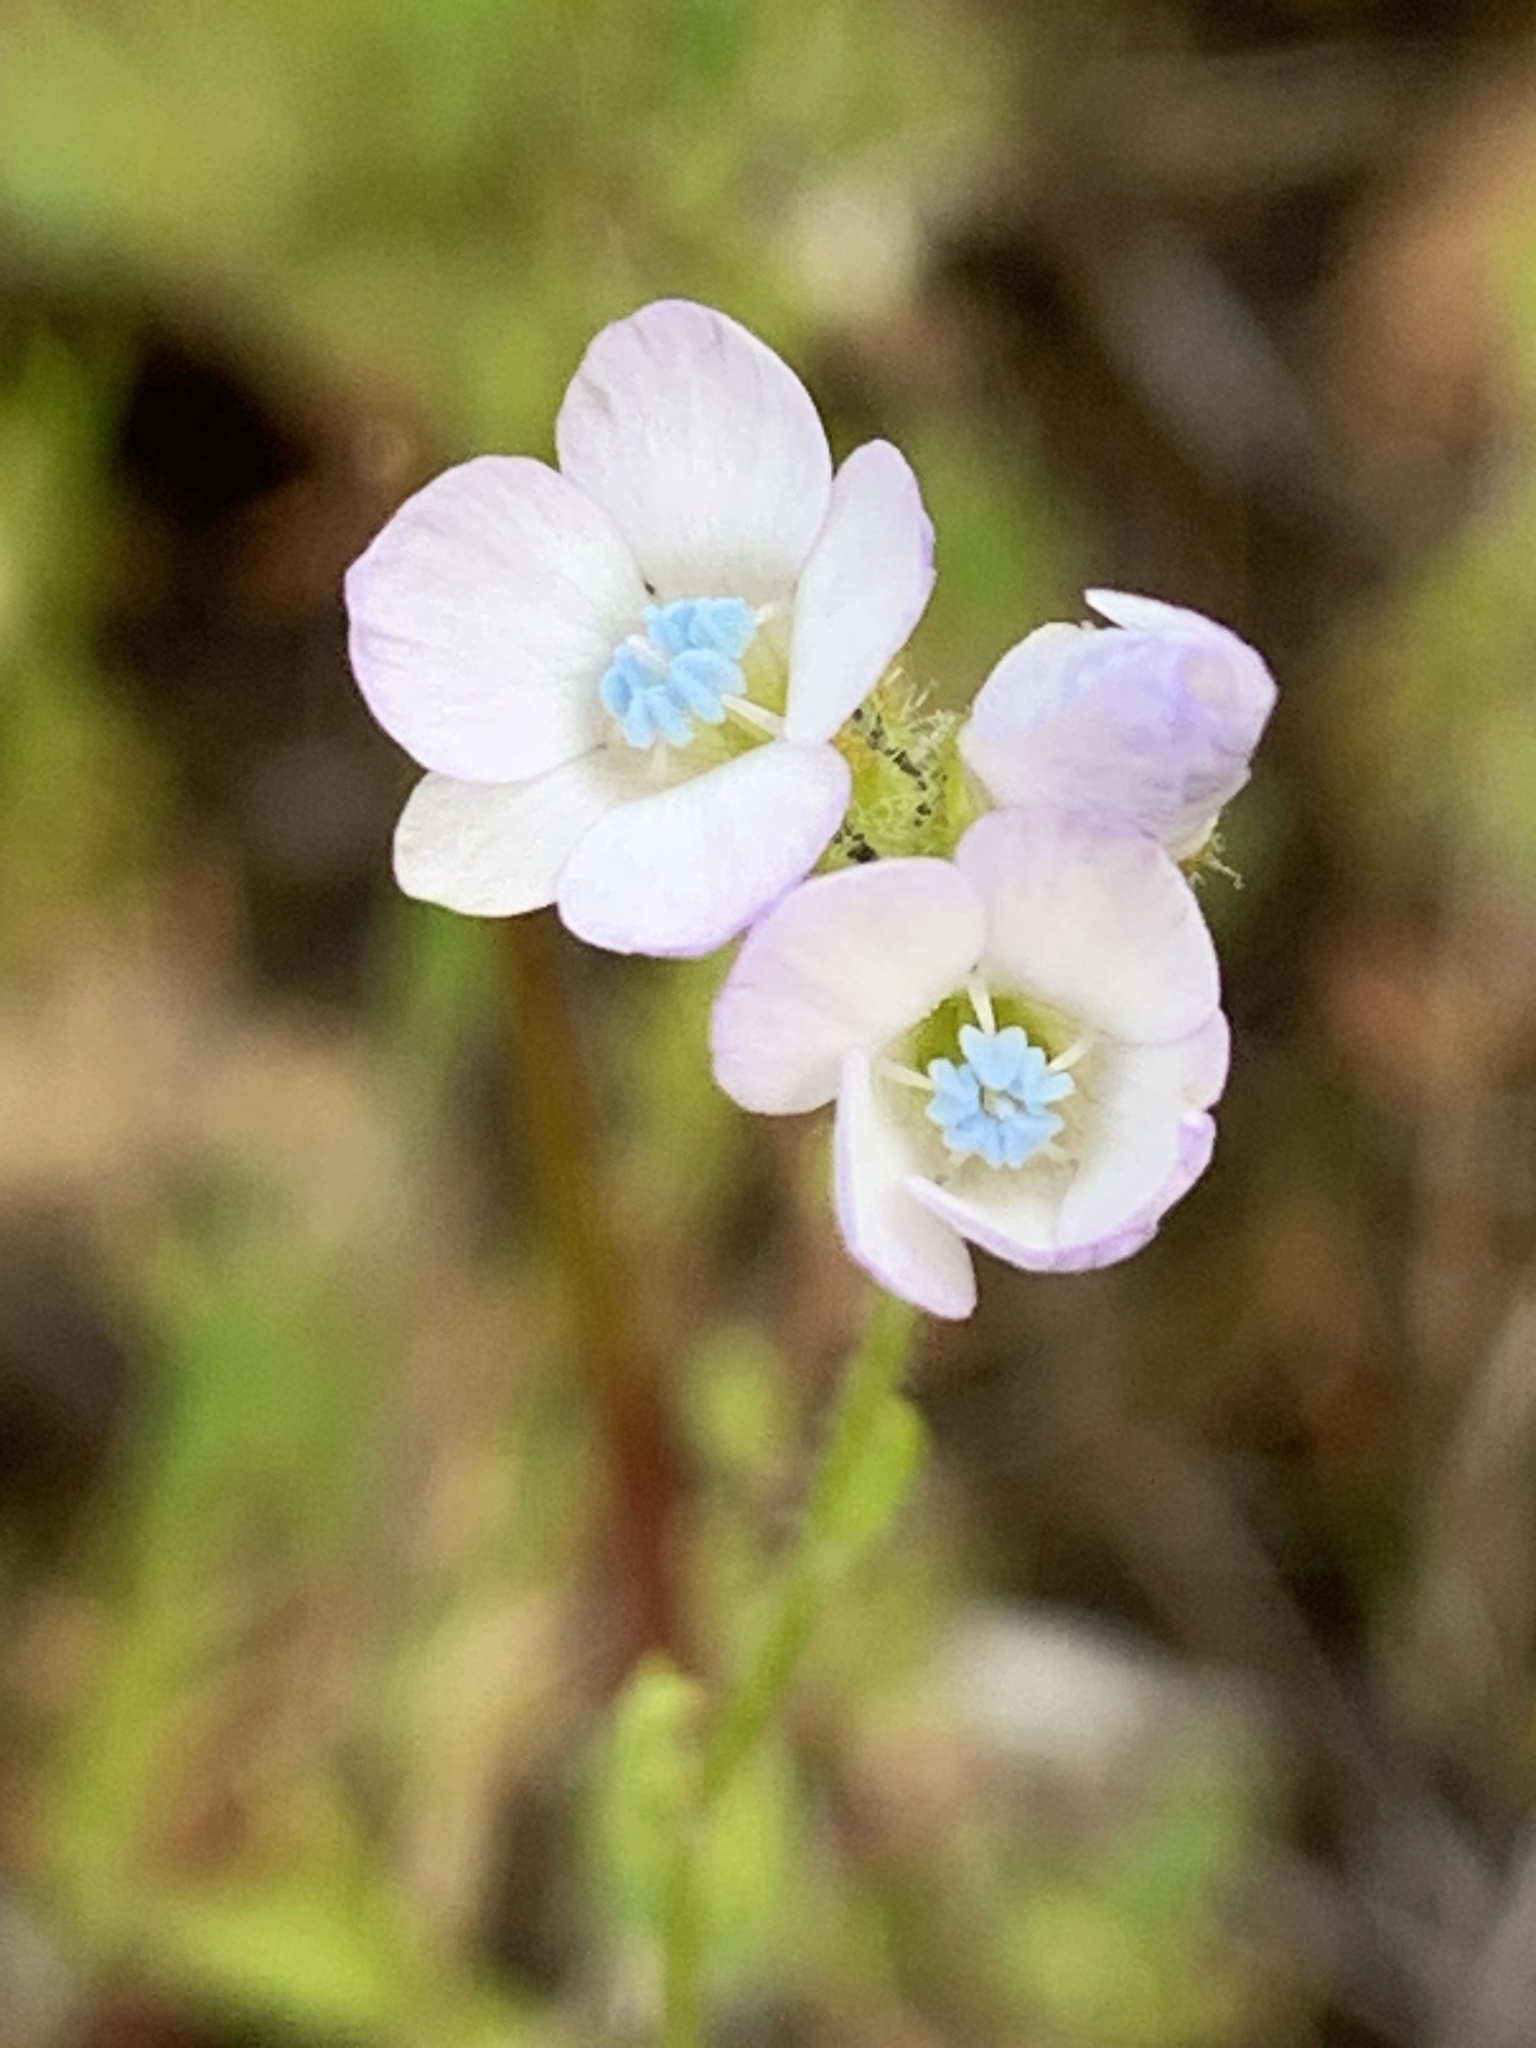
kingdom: Plantae
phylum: Tracheophyta
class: Magnoliopsida
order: Ericales
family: Polemoniaceae
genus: Gilia
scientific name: Gilia angelensis
